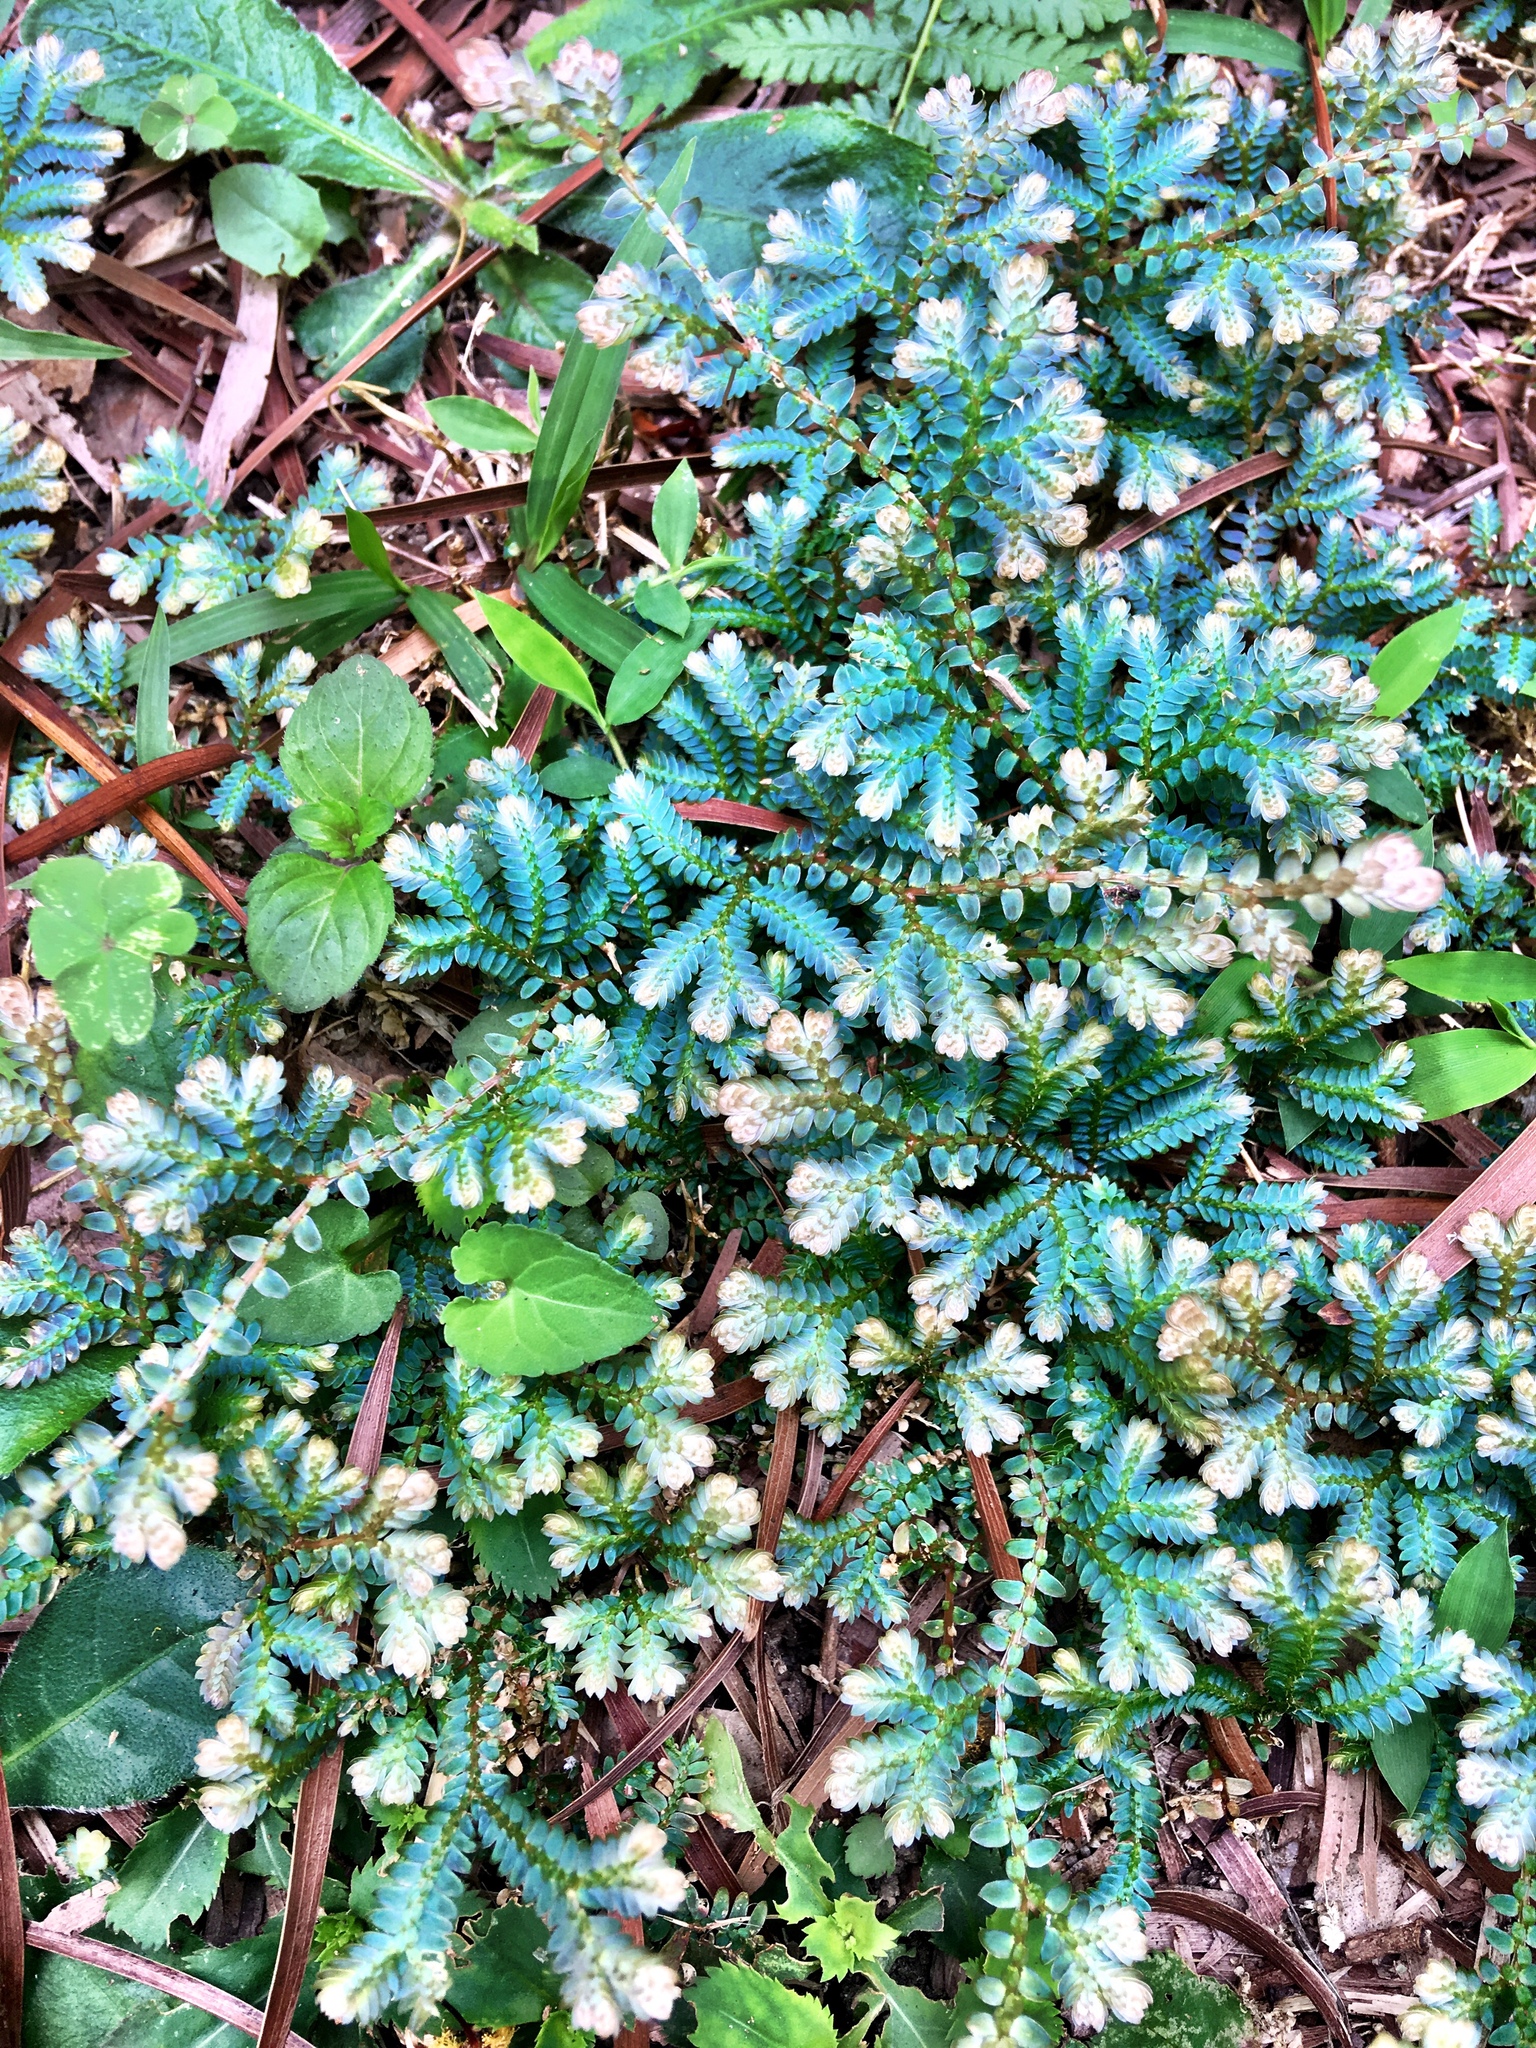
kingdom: Plantae
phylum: Tracheophyta
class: Lycopodiopsida
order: Selaginellales
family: Selaginellaceae
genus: Selaginella
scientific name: Selaginella uncinata
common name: Blue spikemoss
